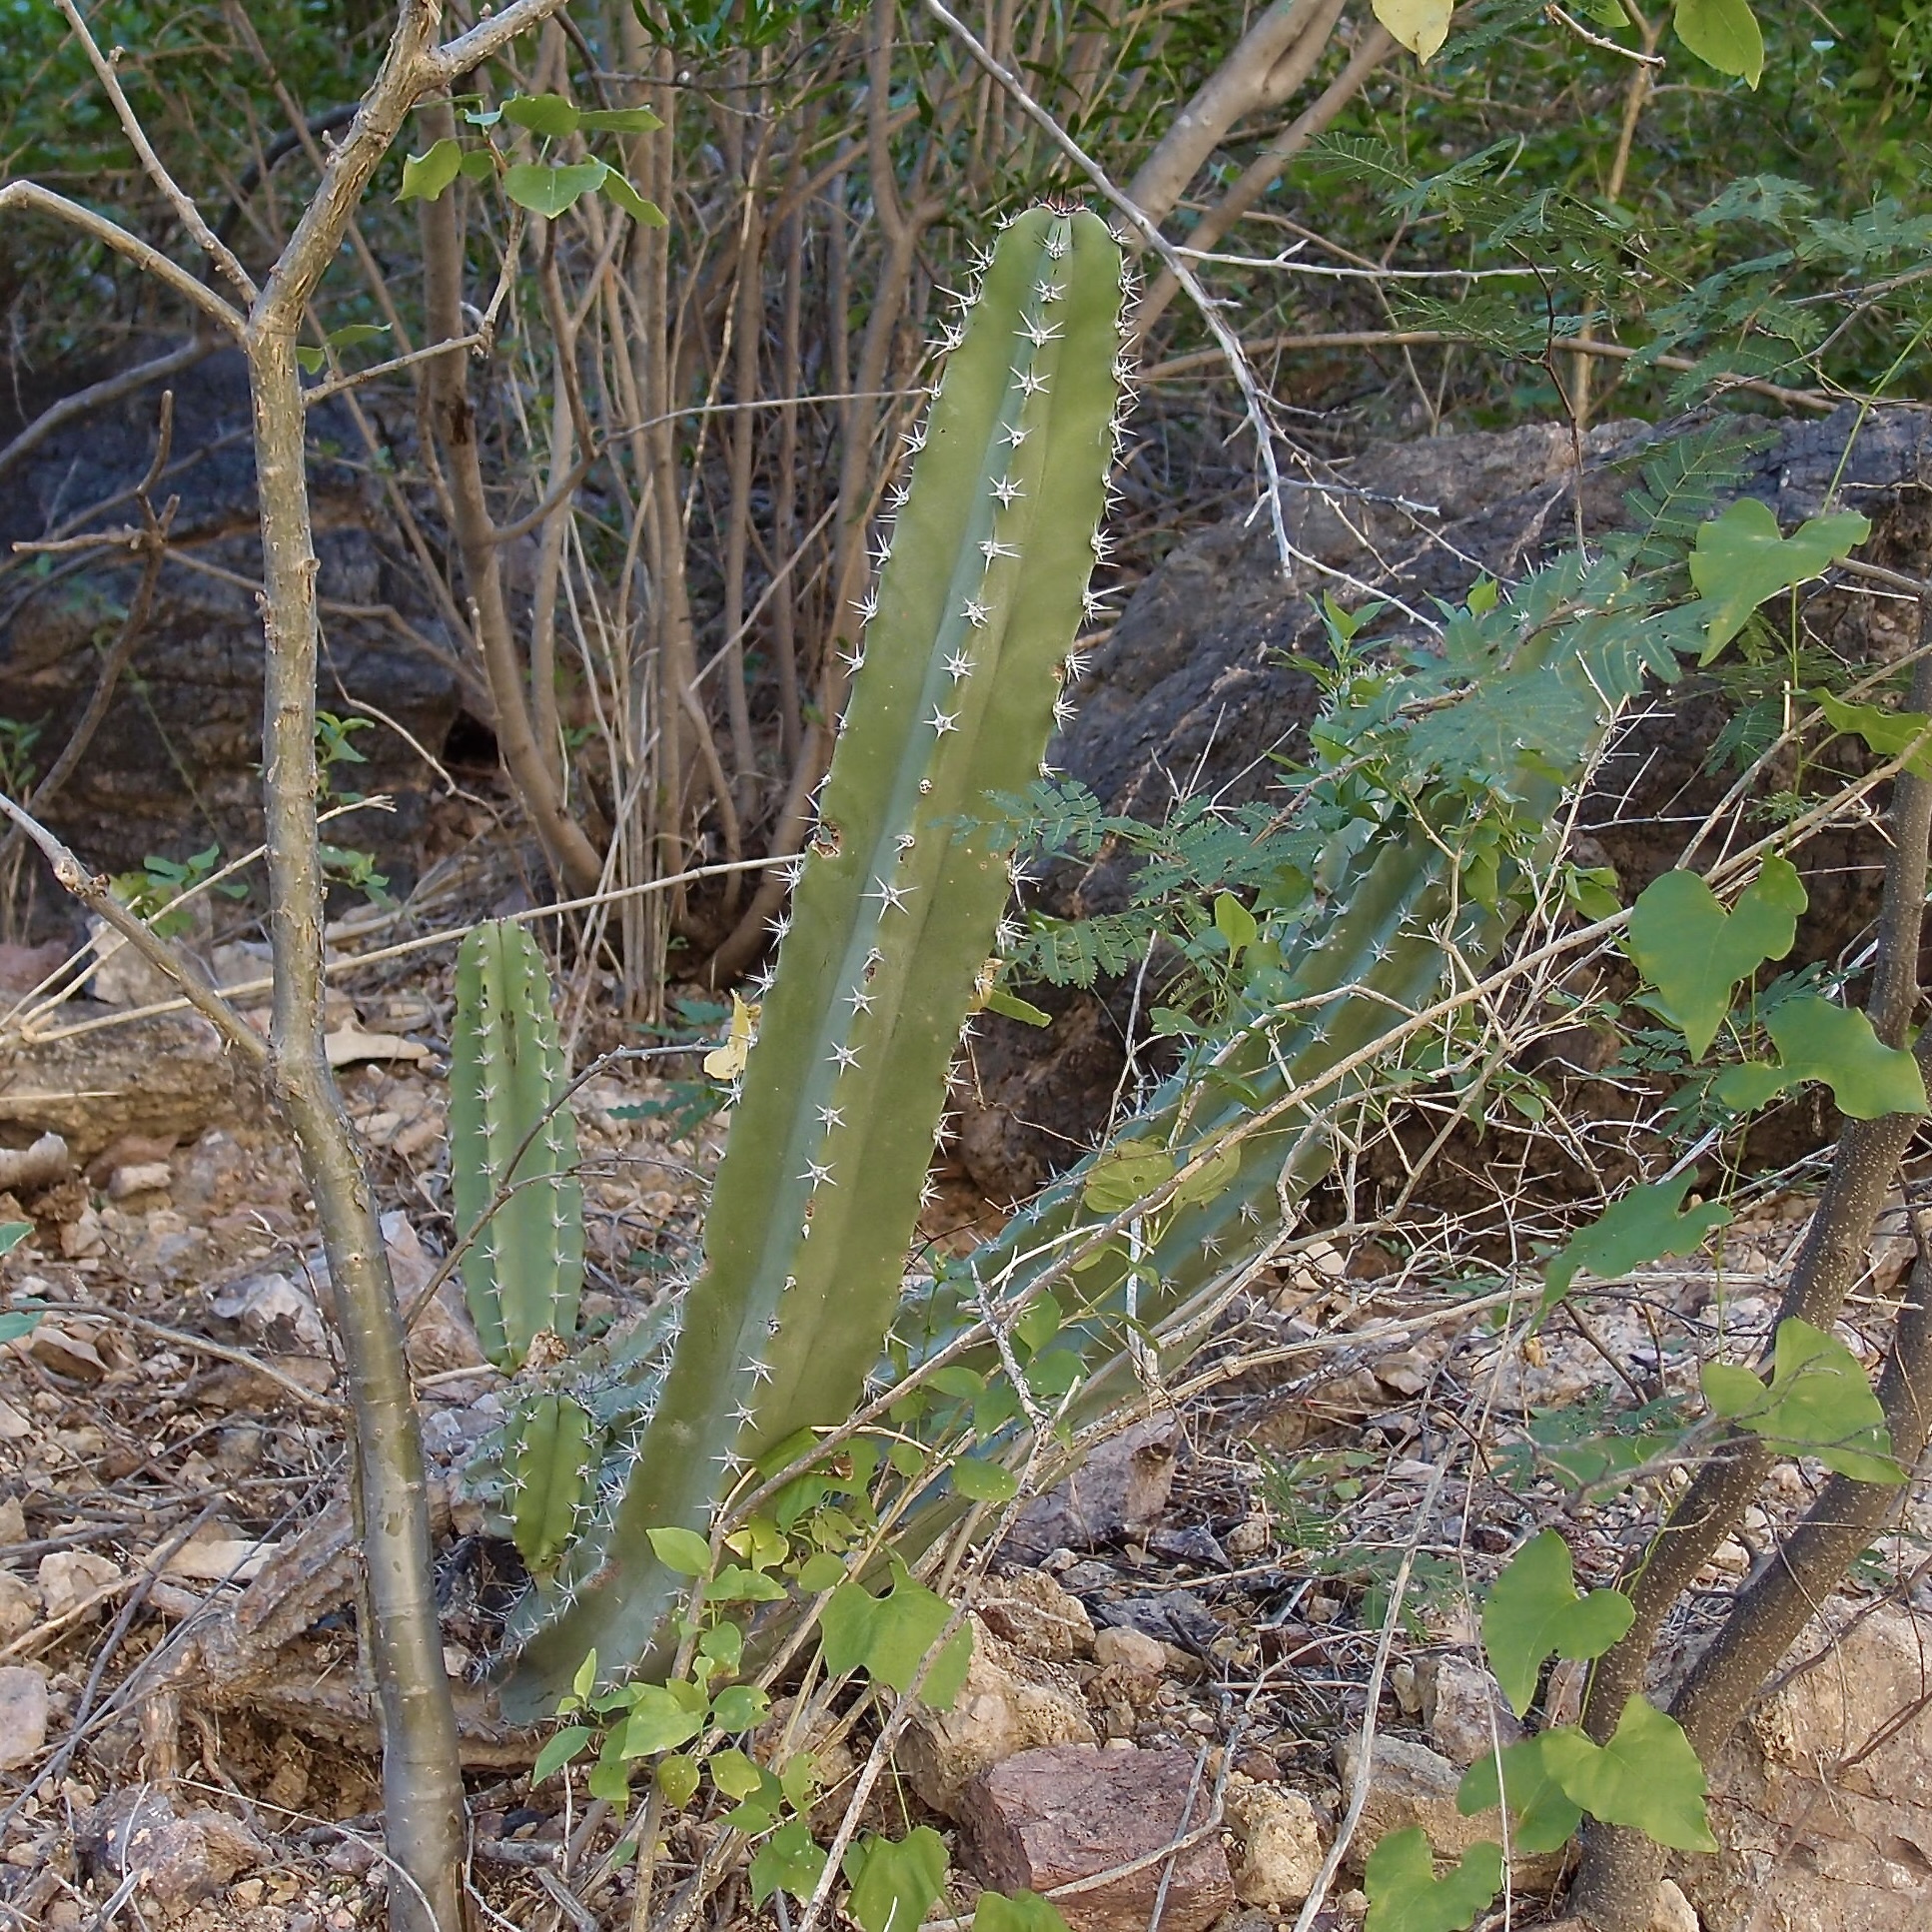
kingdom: Plantae
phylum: Tracheophyta
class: Magnoliopsida
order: Caryophyllales
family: Cactaceae
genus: Pachycereus
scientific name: Pachycereus schottii
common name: Senita cactus
